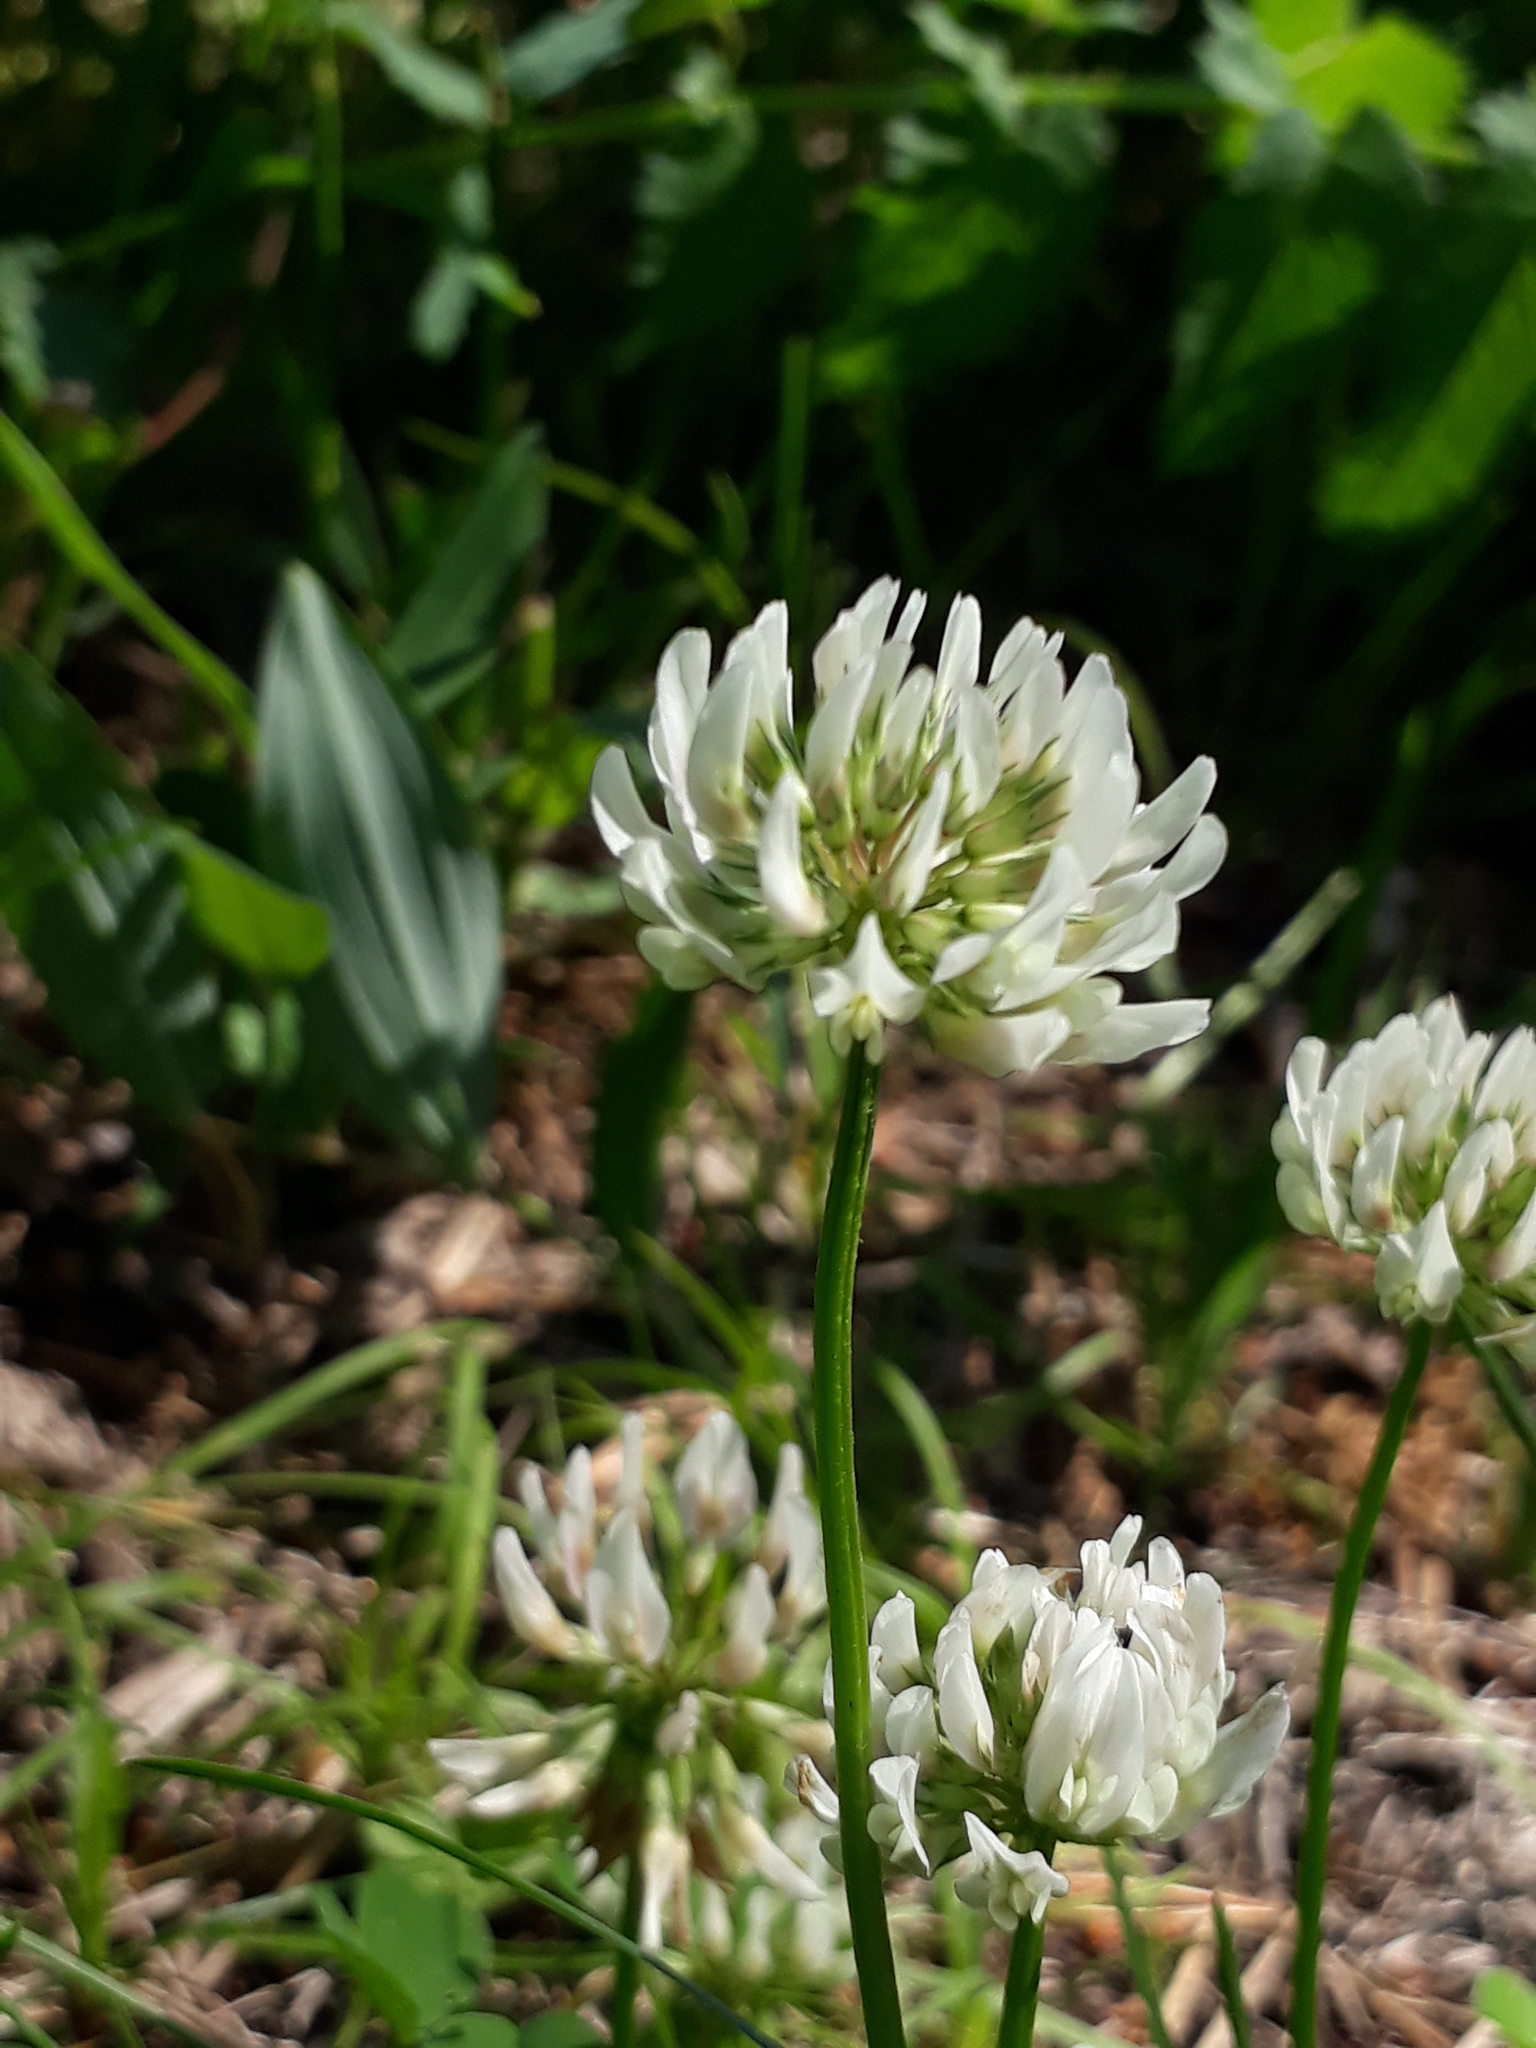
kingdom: Plantae
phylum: Tracheophyta
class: Magnoliopsida
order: Fabales
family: Fabaceae
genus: Trifolium
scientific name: Trifolium repens
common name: White clover
